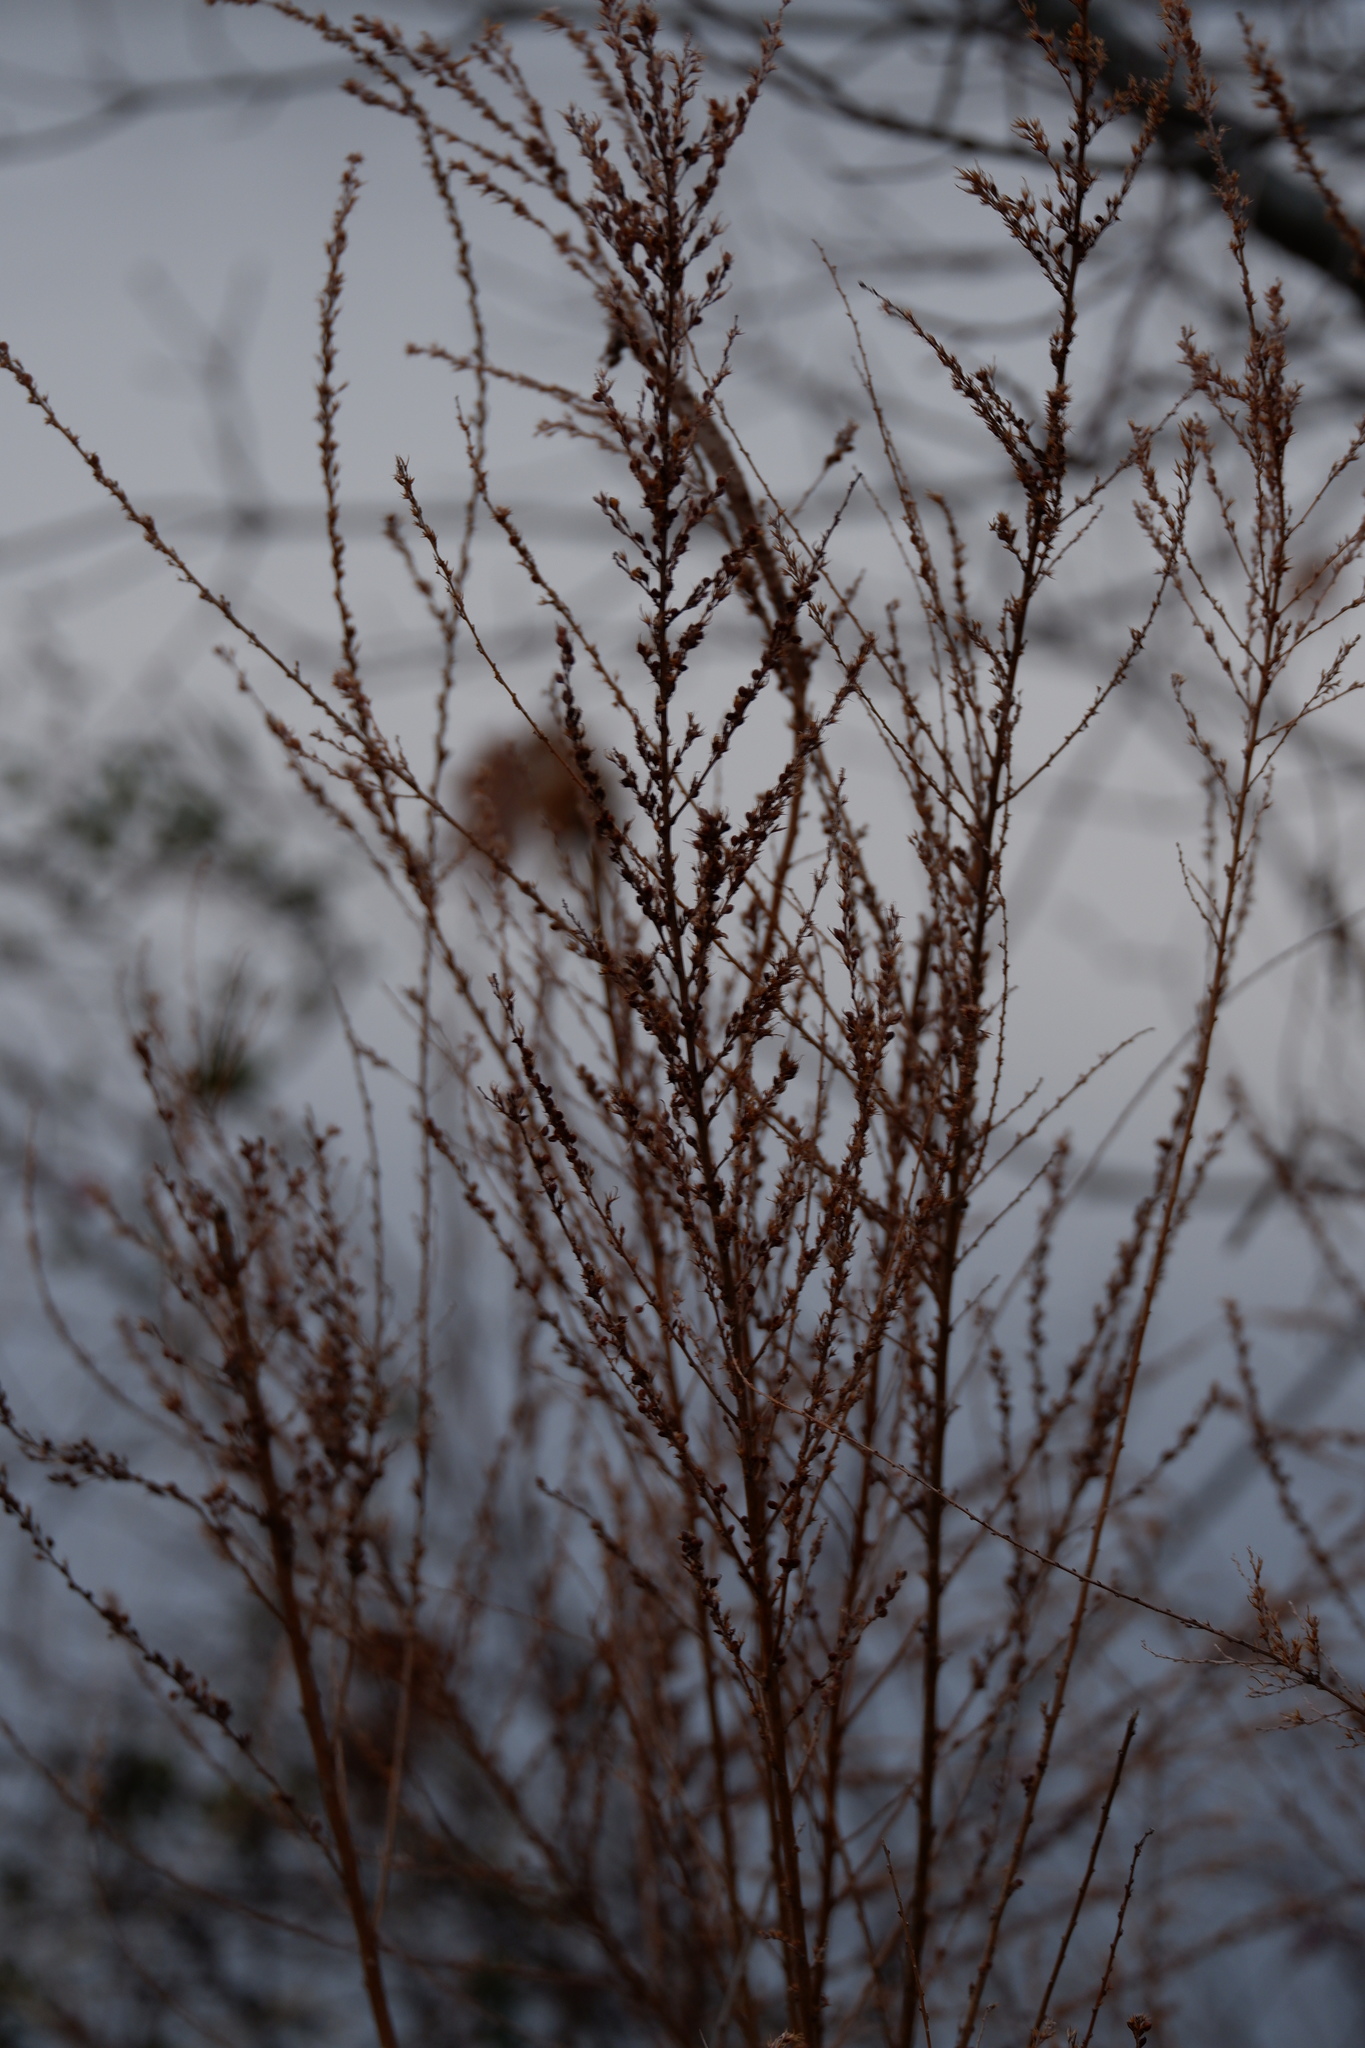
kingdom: Plantae
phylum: Tracheophyta
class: Magnoliopsida
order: Fabales
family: Fabaceae
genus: Lespedeza
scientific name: Lespedeza cuneata
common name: Chinese bush-clover
